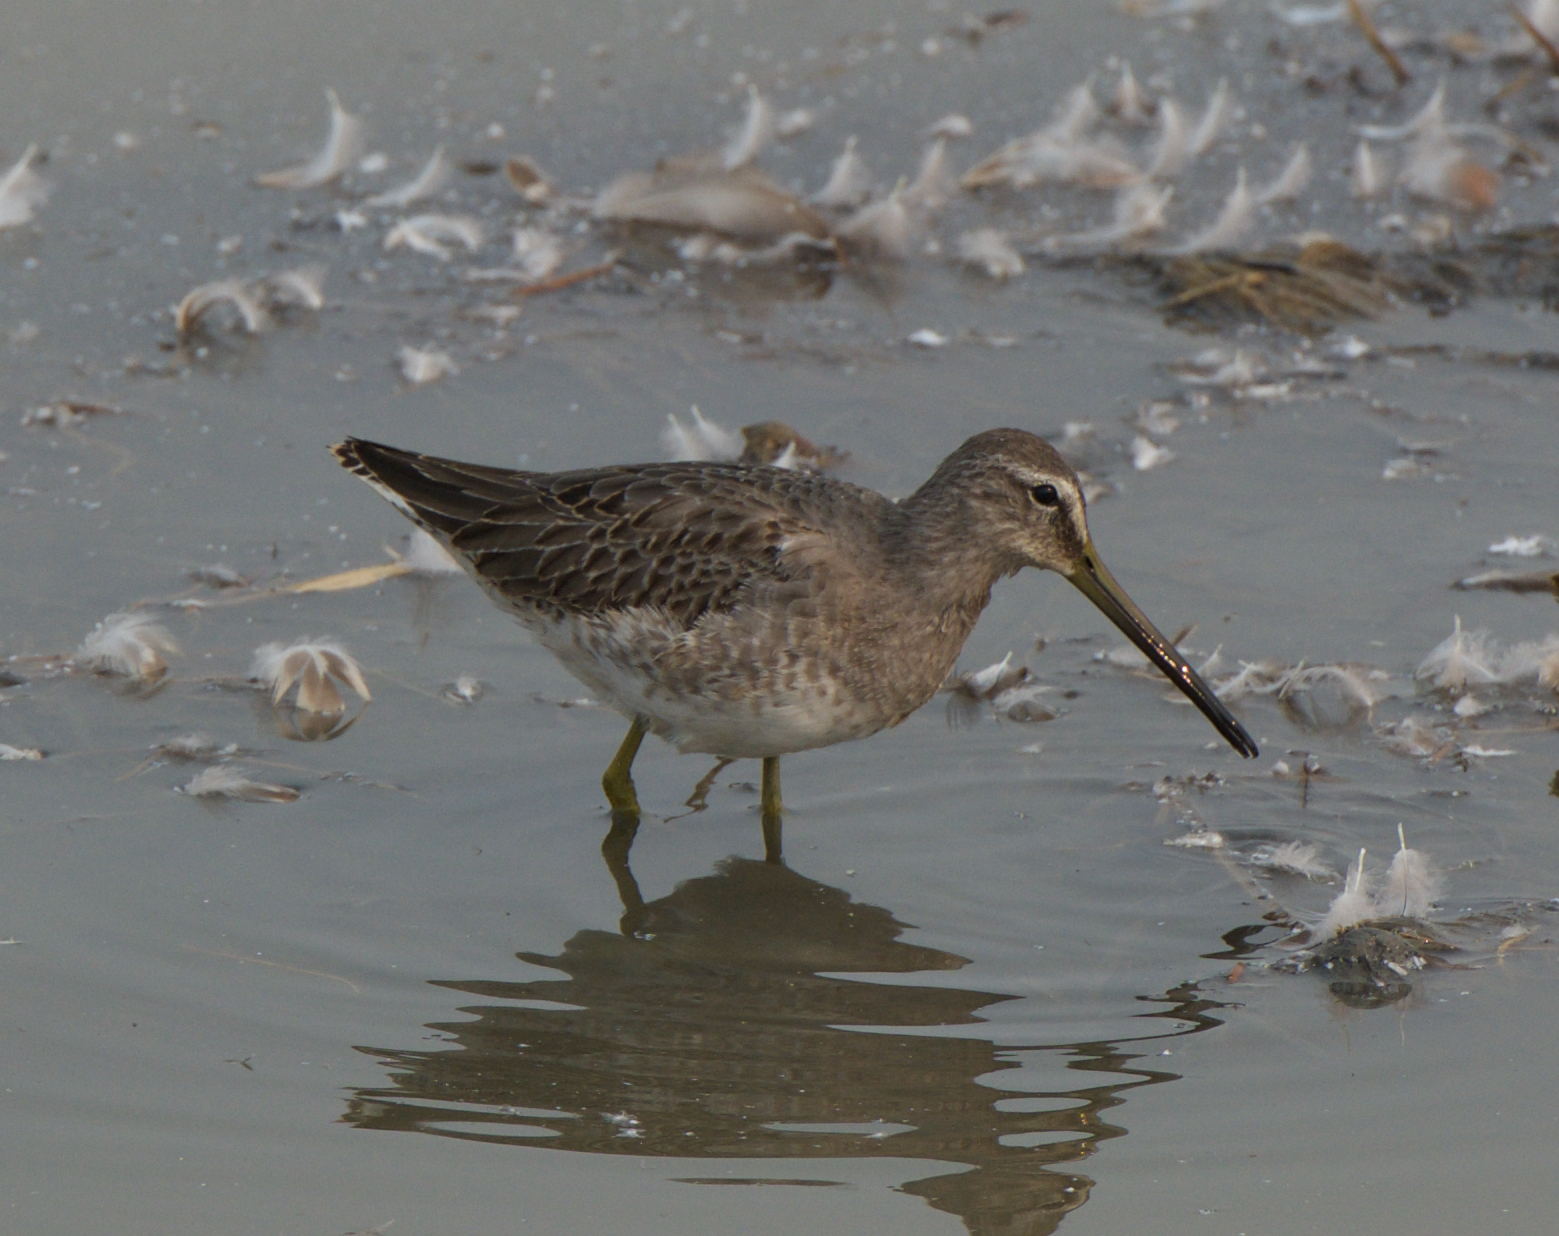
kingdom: Animalia
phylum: Chordata
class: Aves
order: Charadriiformes
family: Scolopacidae
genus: Limnodromus
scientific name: Limnodromus scolopaceus
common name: Long-billed dowitcher
